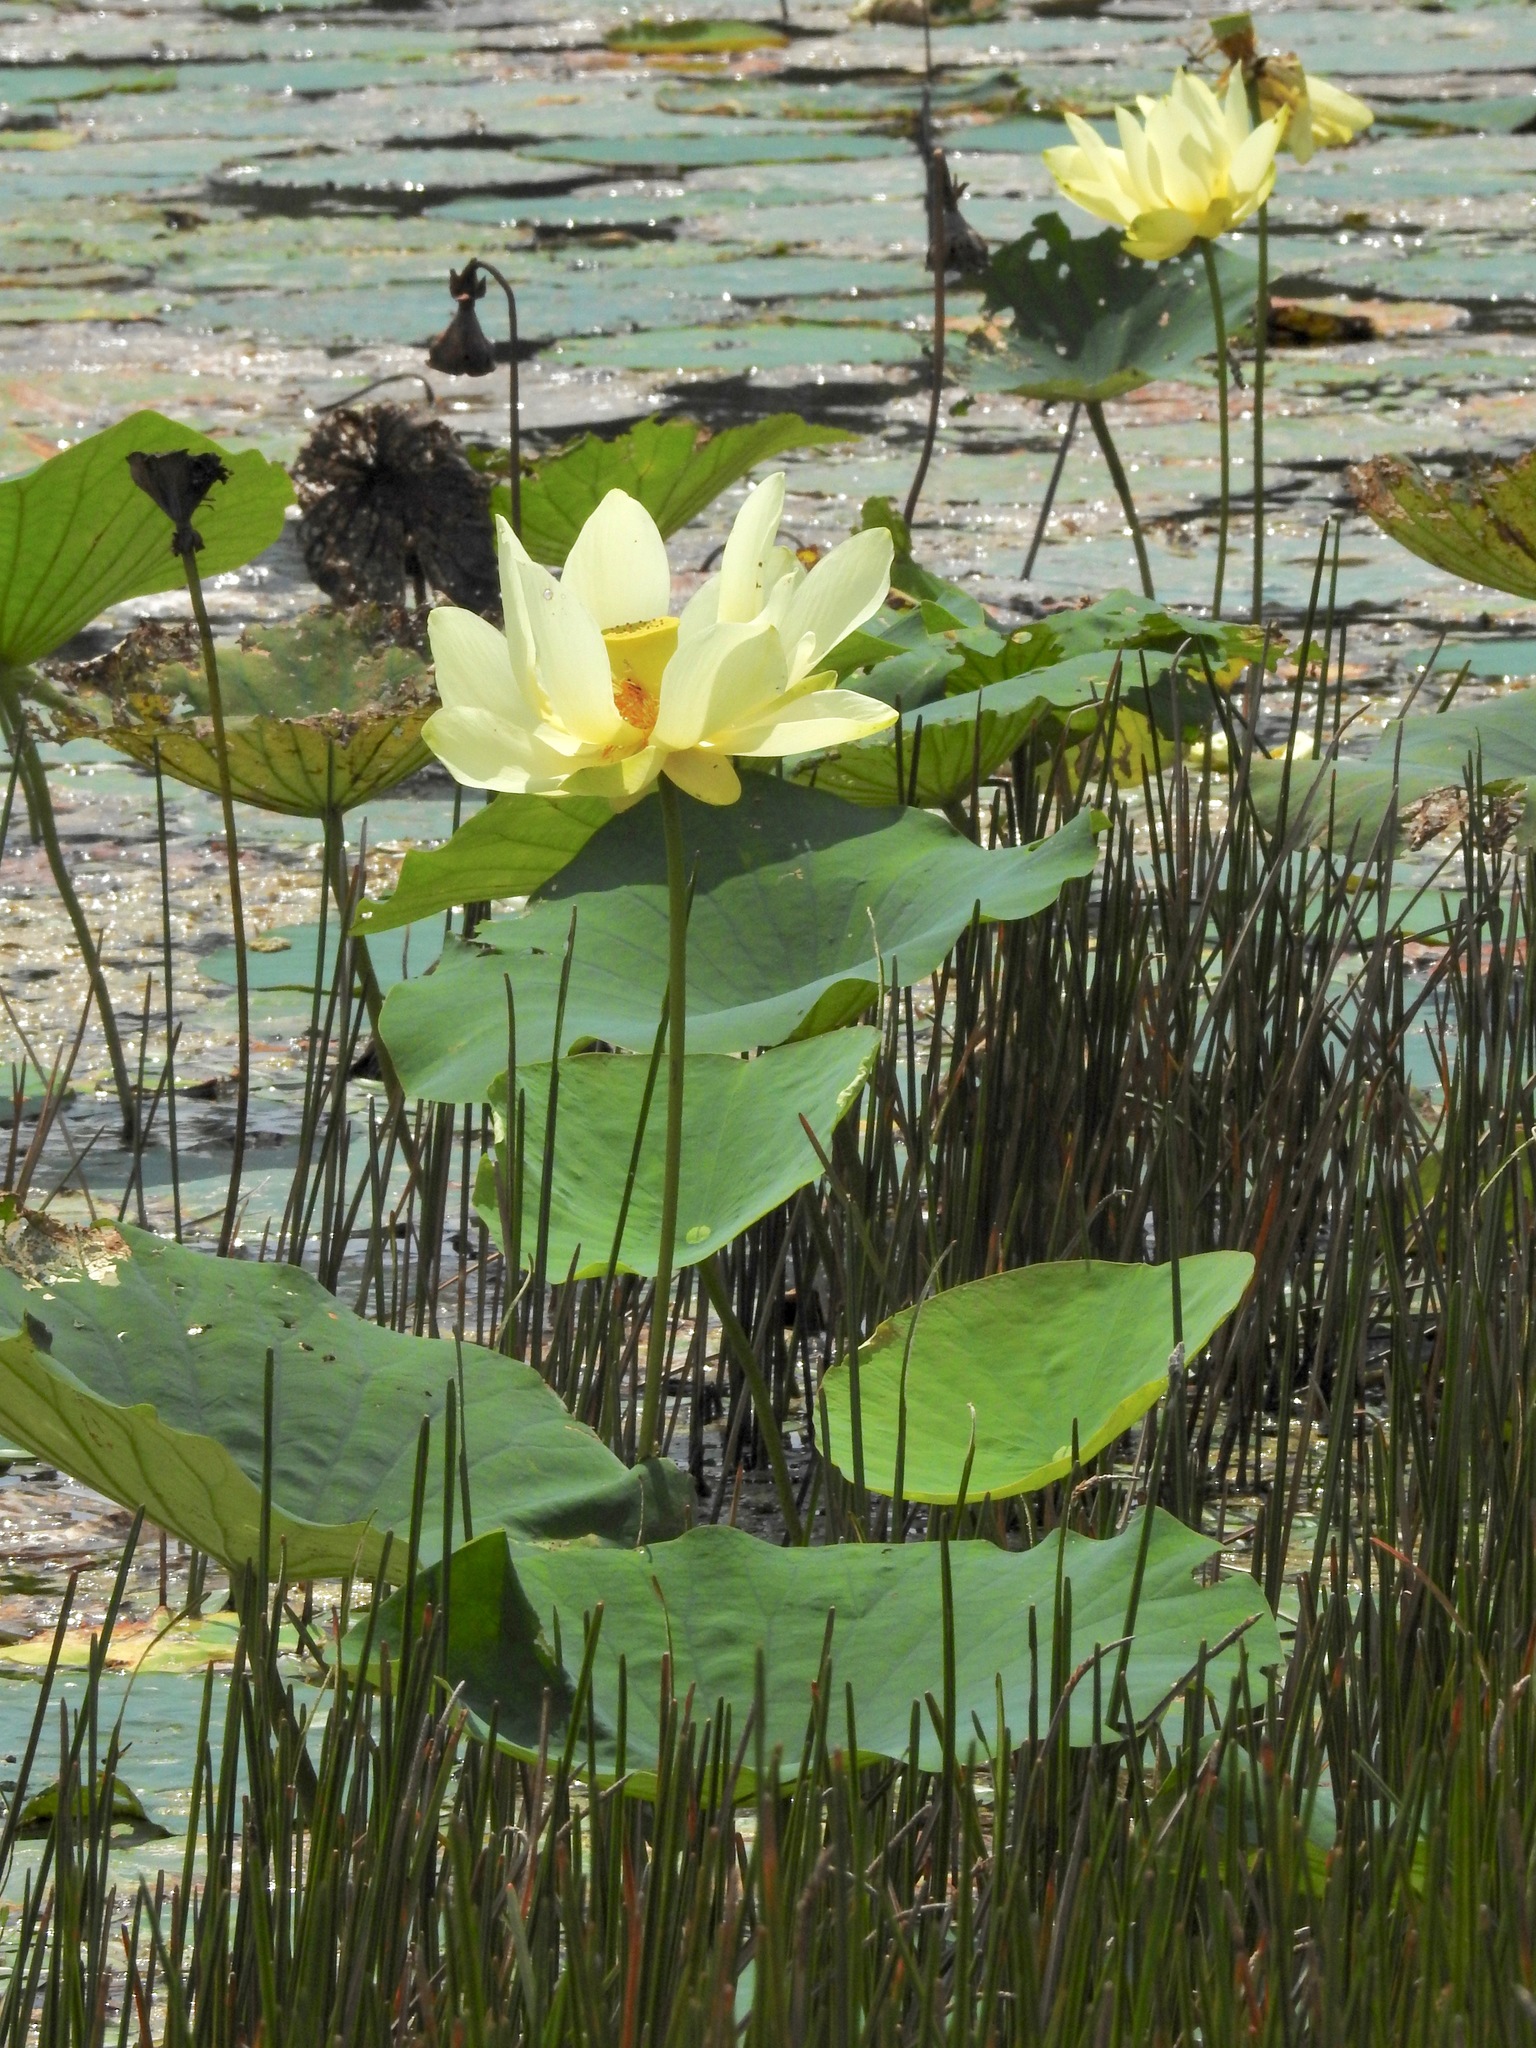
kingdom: Plantae
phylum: Tracheophyta
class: Magnoliopsida
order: Proteales
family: Nelumbonaceae
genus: Nelumbo
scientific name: Nelumbo lutea
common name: American lotus
